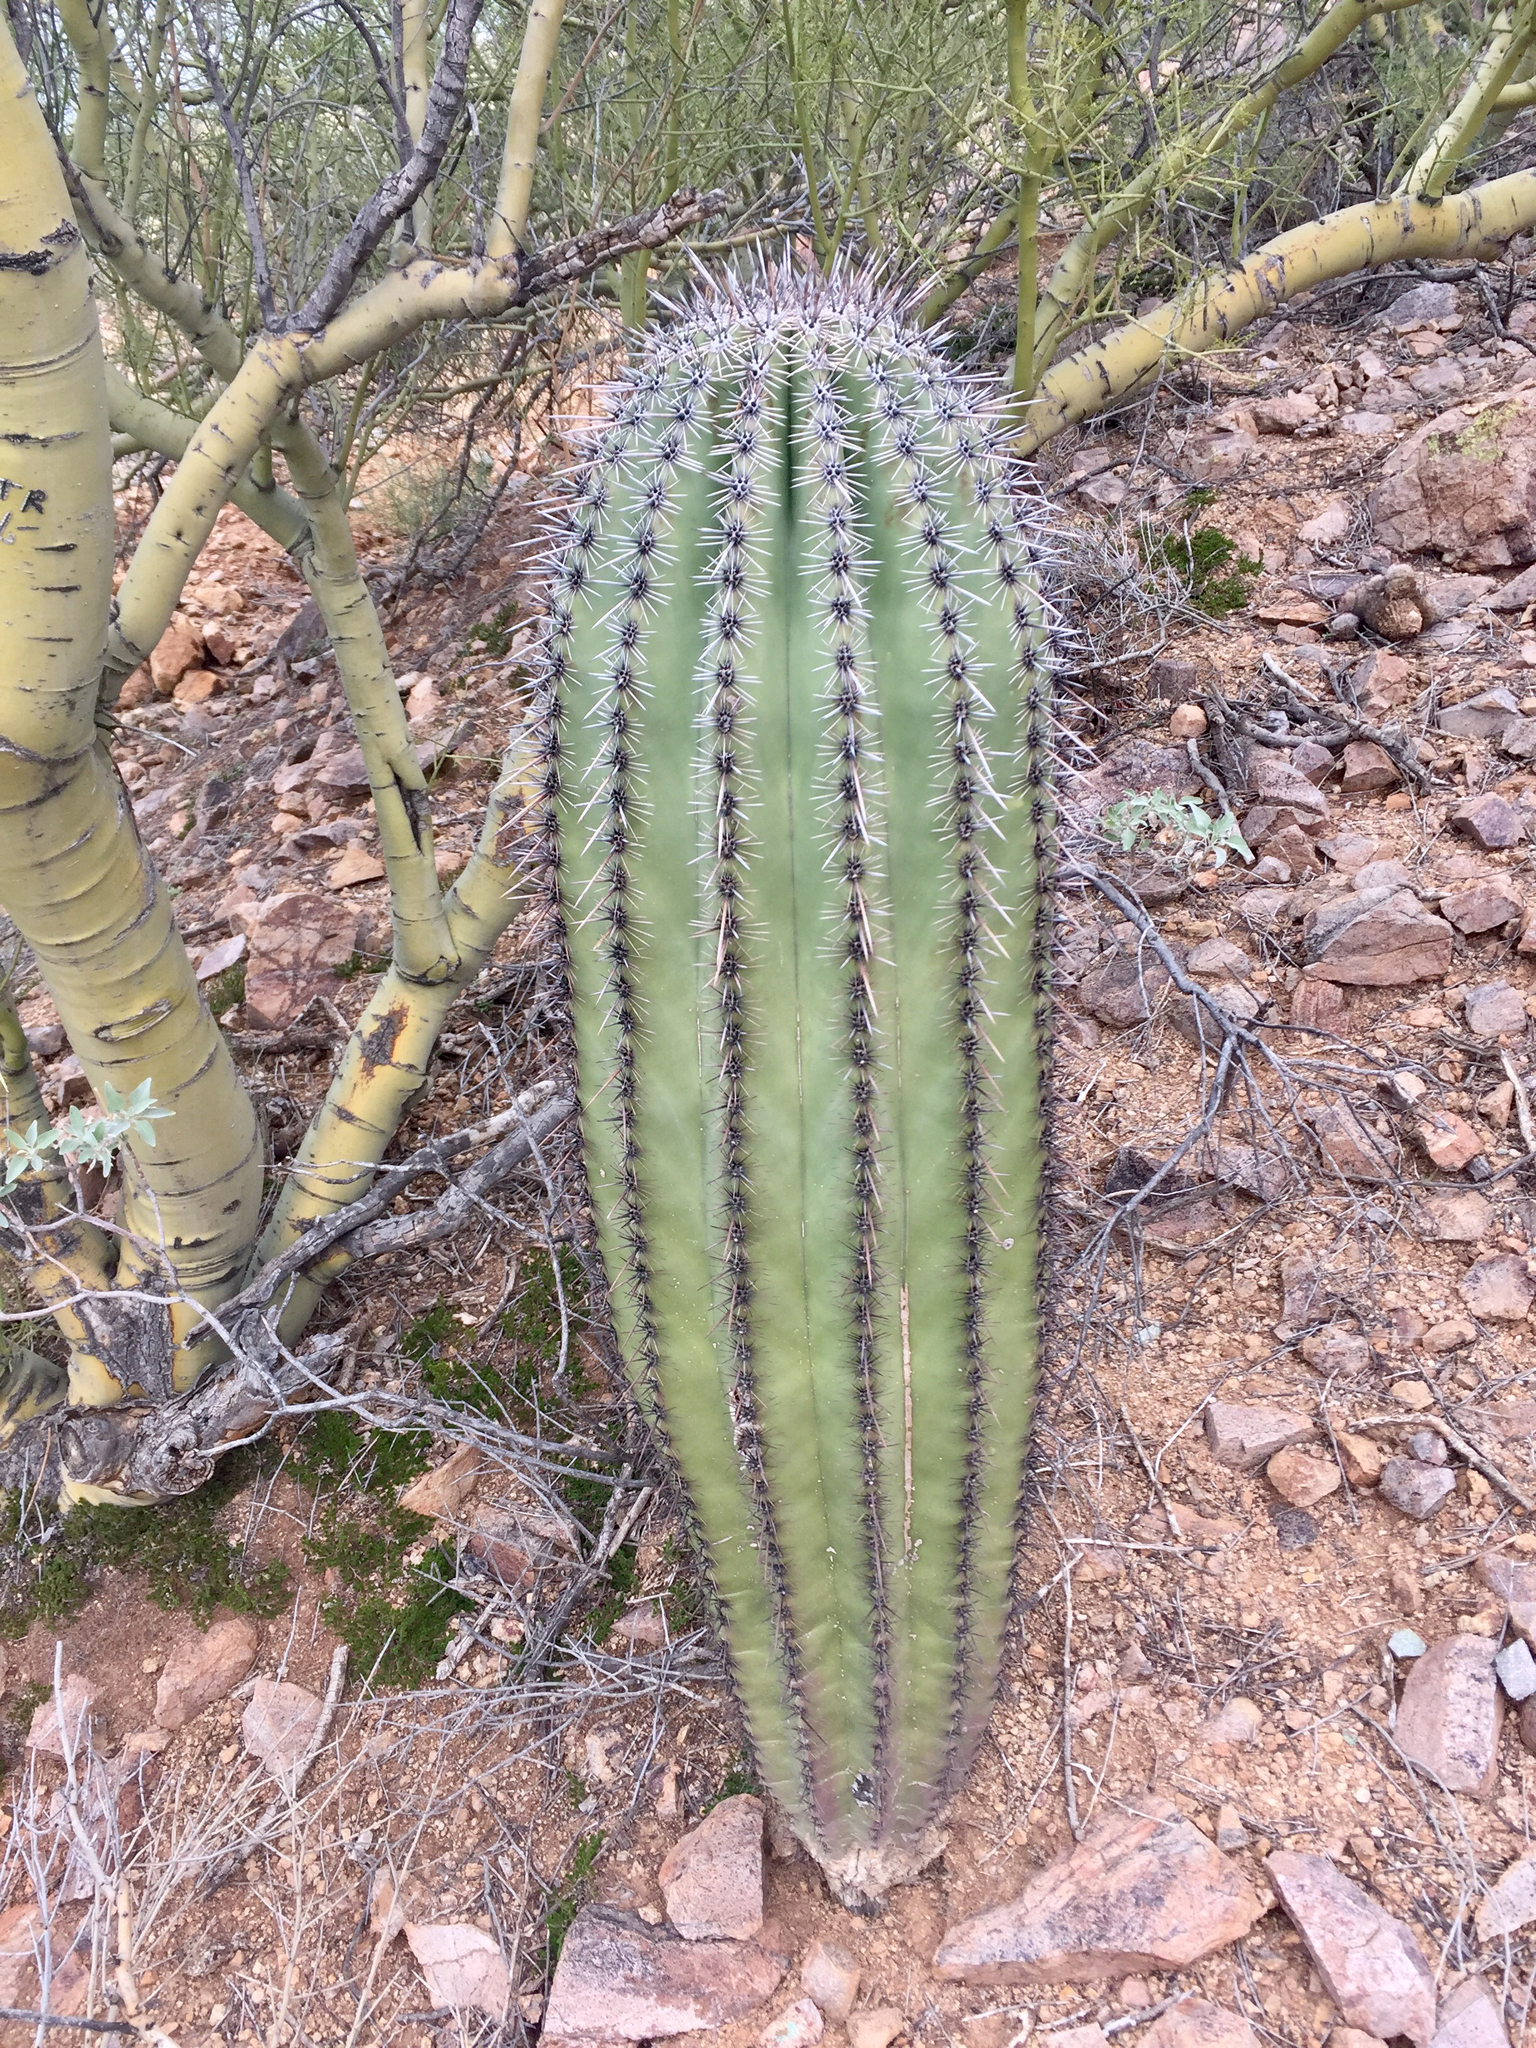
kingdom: Plantae
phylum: Tracheophyta
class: Magnoliopsida
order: Caryophyllales
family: Cactaceae
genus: Carnegiea
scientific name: Carnegiea gigantea
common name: Saguaro
